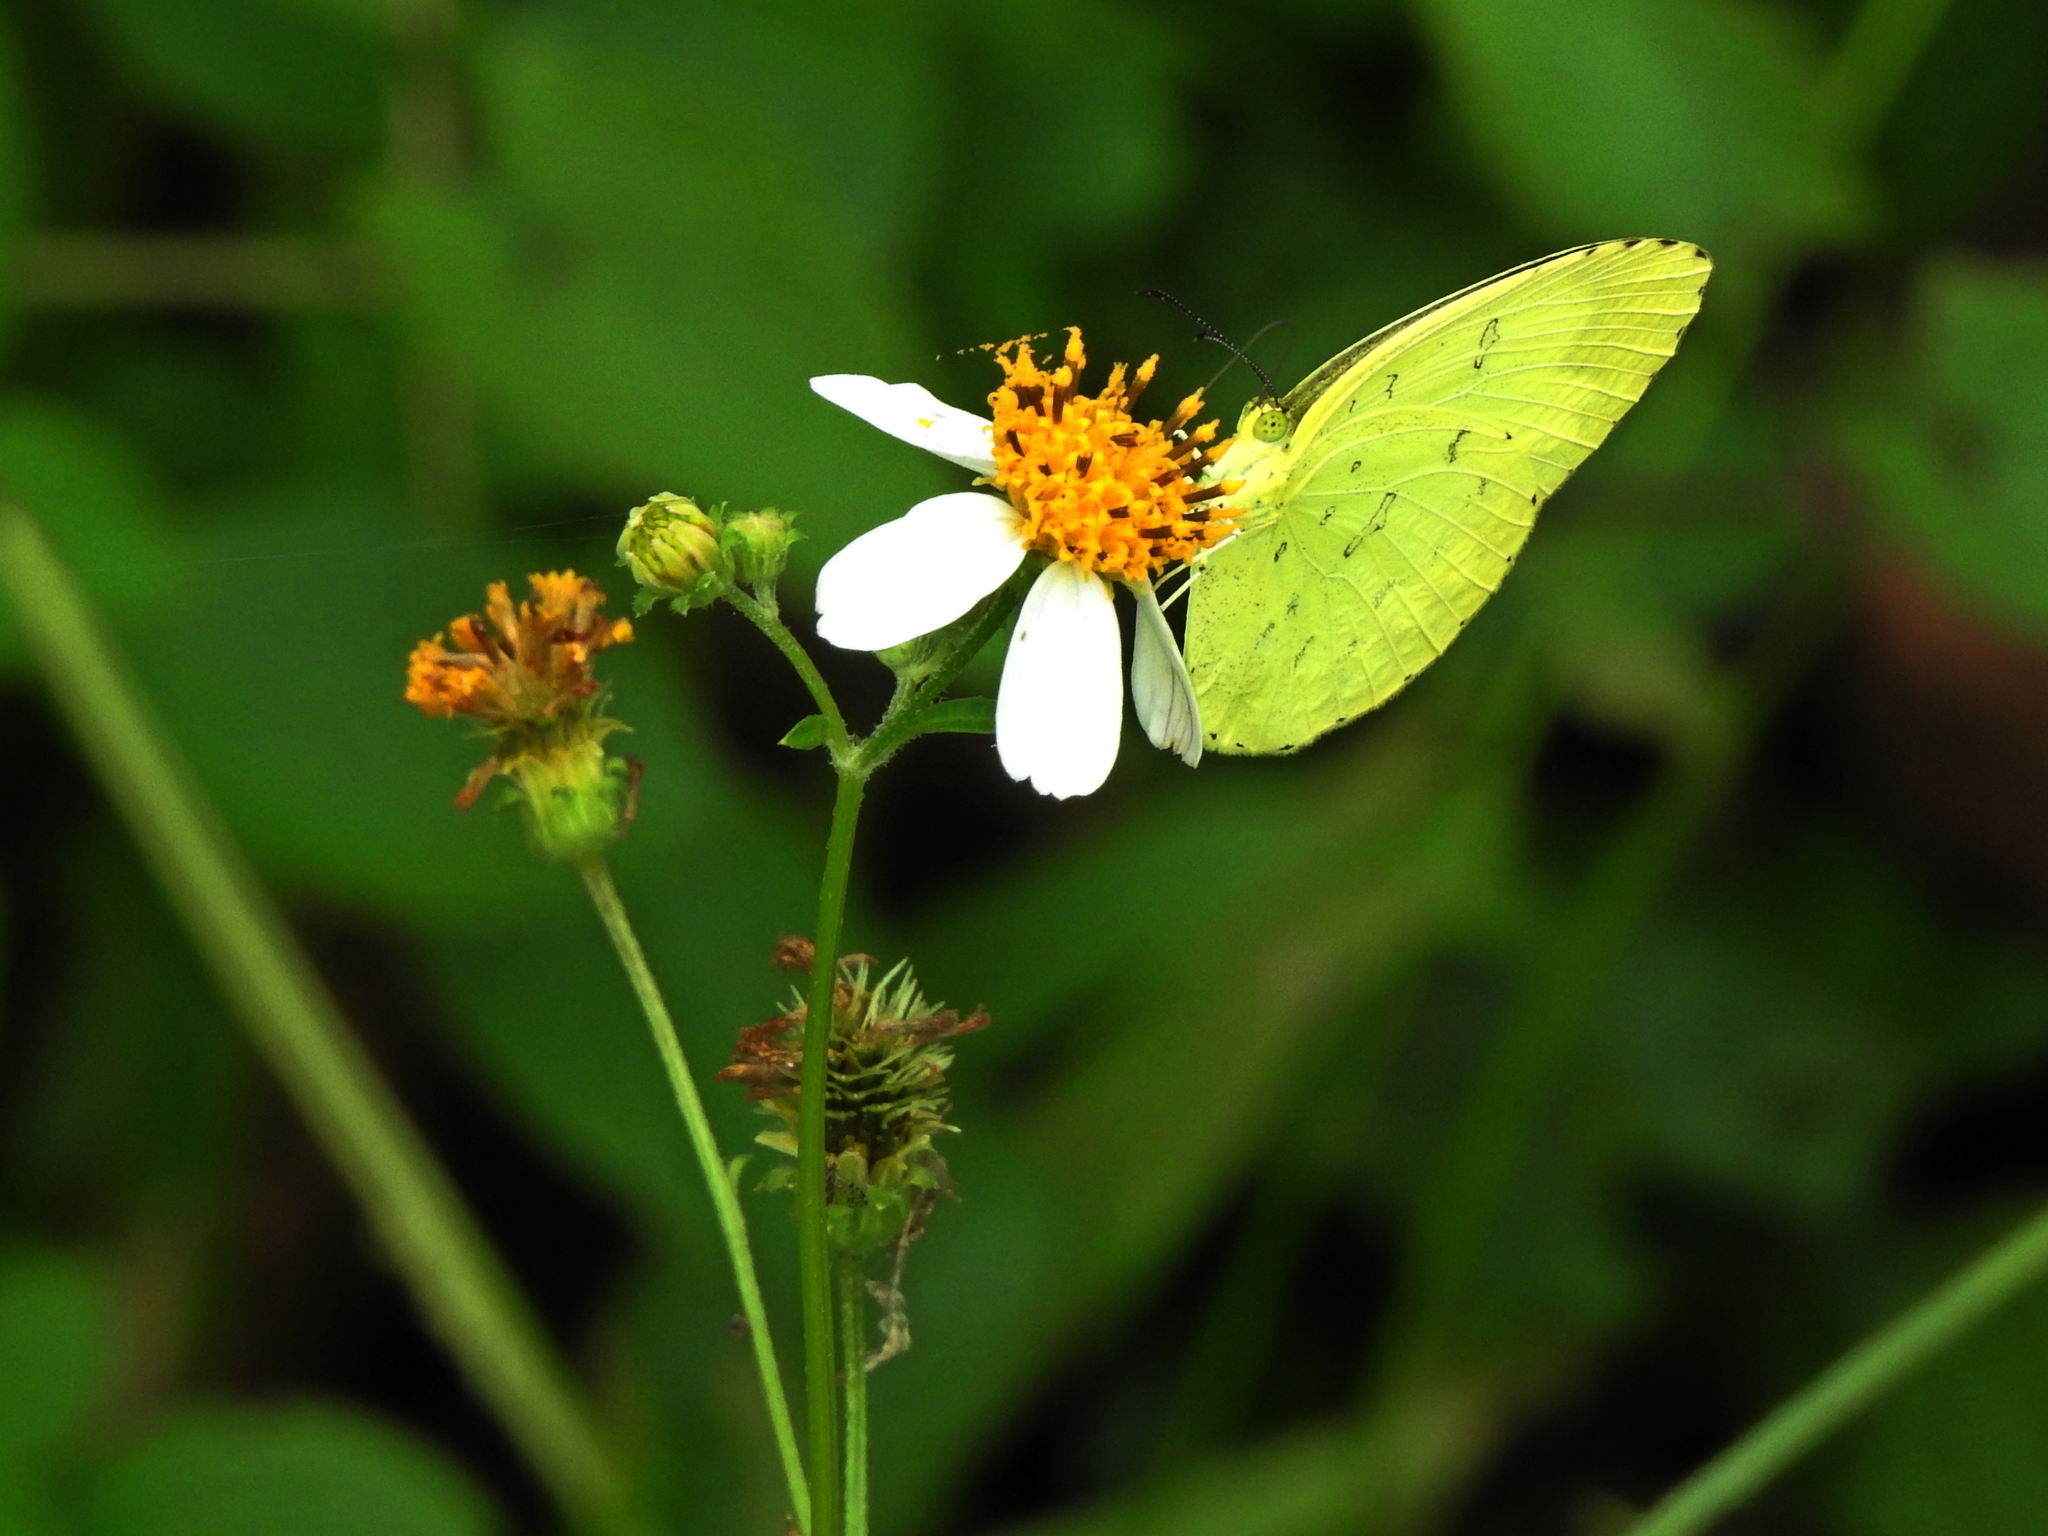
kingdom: Animalia
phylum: Arthropoda
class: Insecta
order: Lepidoptera
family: Pieridae
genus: Eurema
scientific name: Eurema blanda
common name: Three-spot grass yellow
